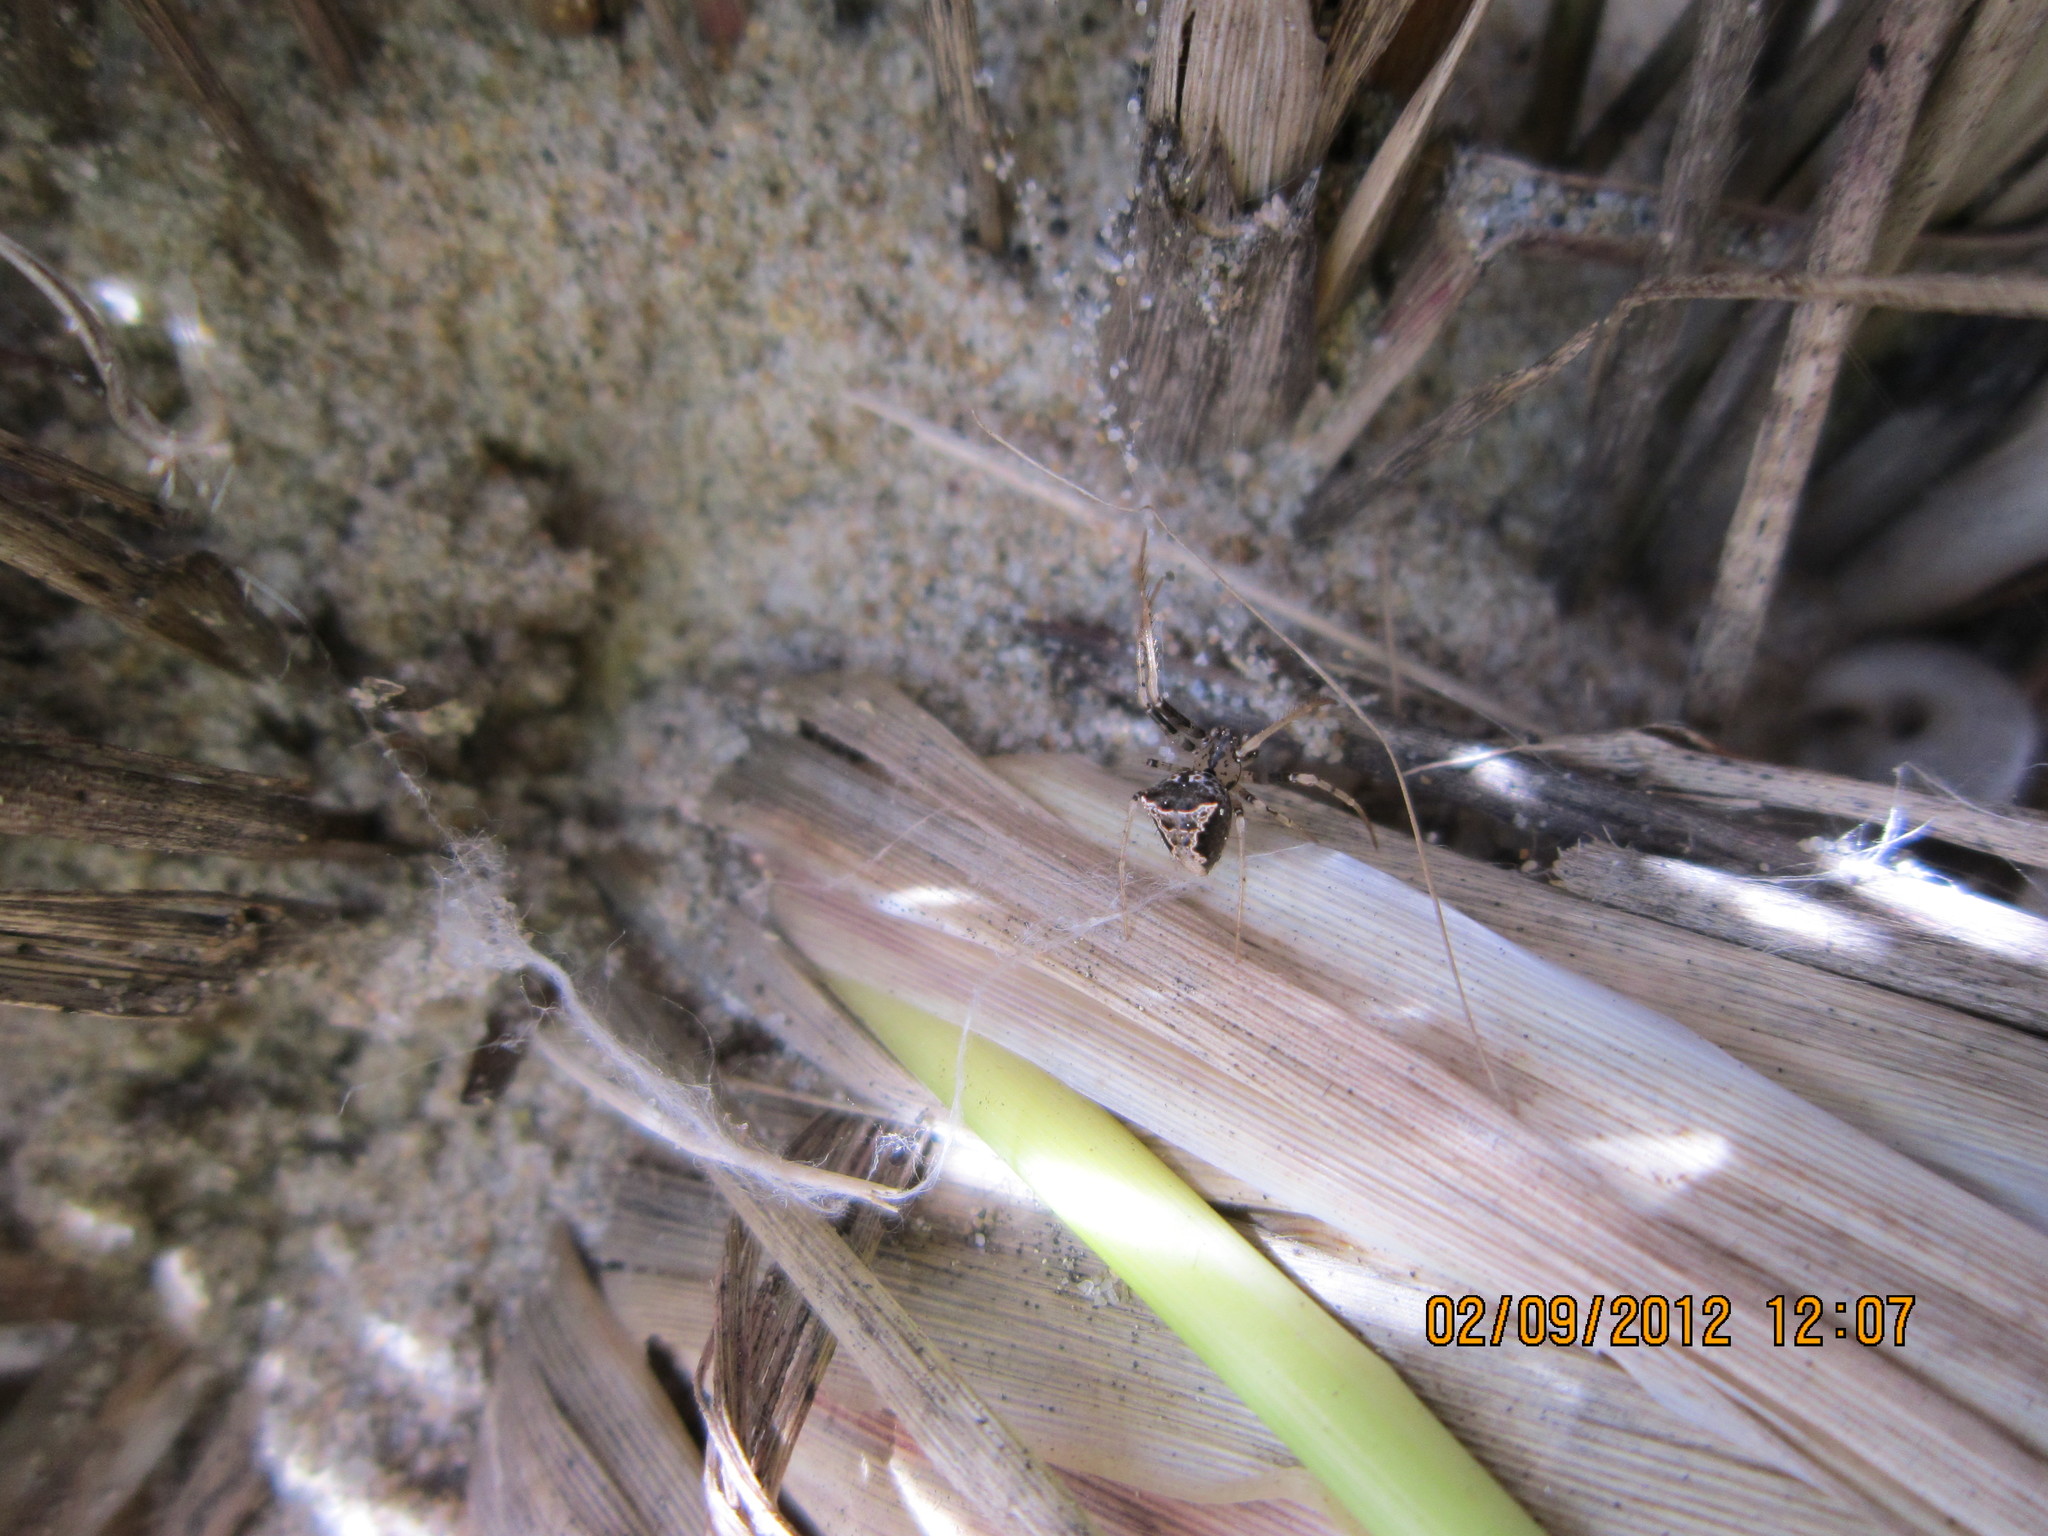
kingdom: Animalia
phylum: Arthropoda
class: Arachnida
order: Araneae
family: Mimetidae
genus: Australomimetus
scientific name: Australomimetus hartleyensis
